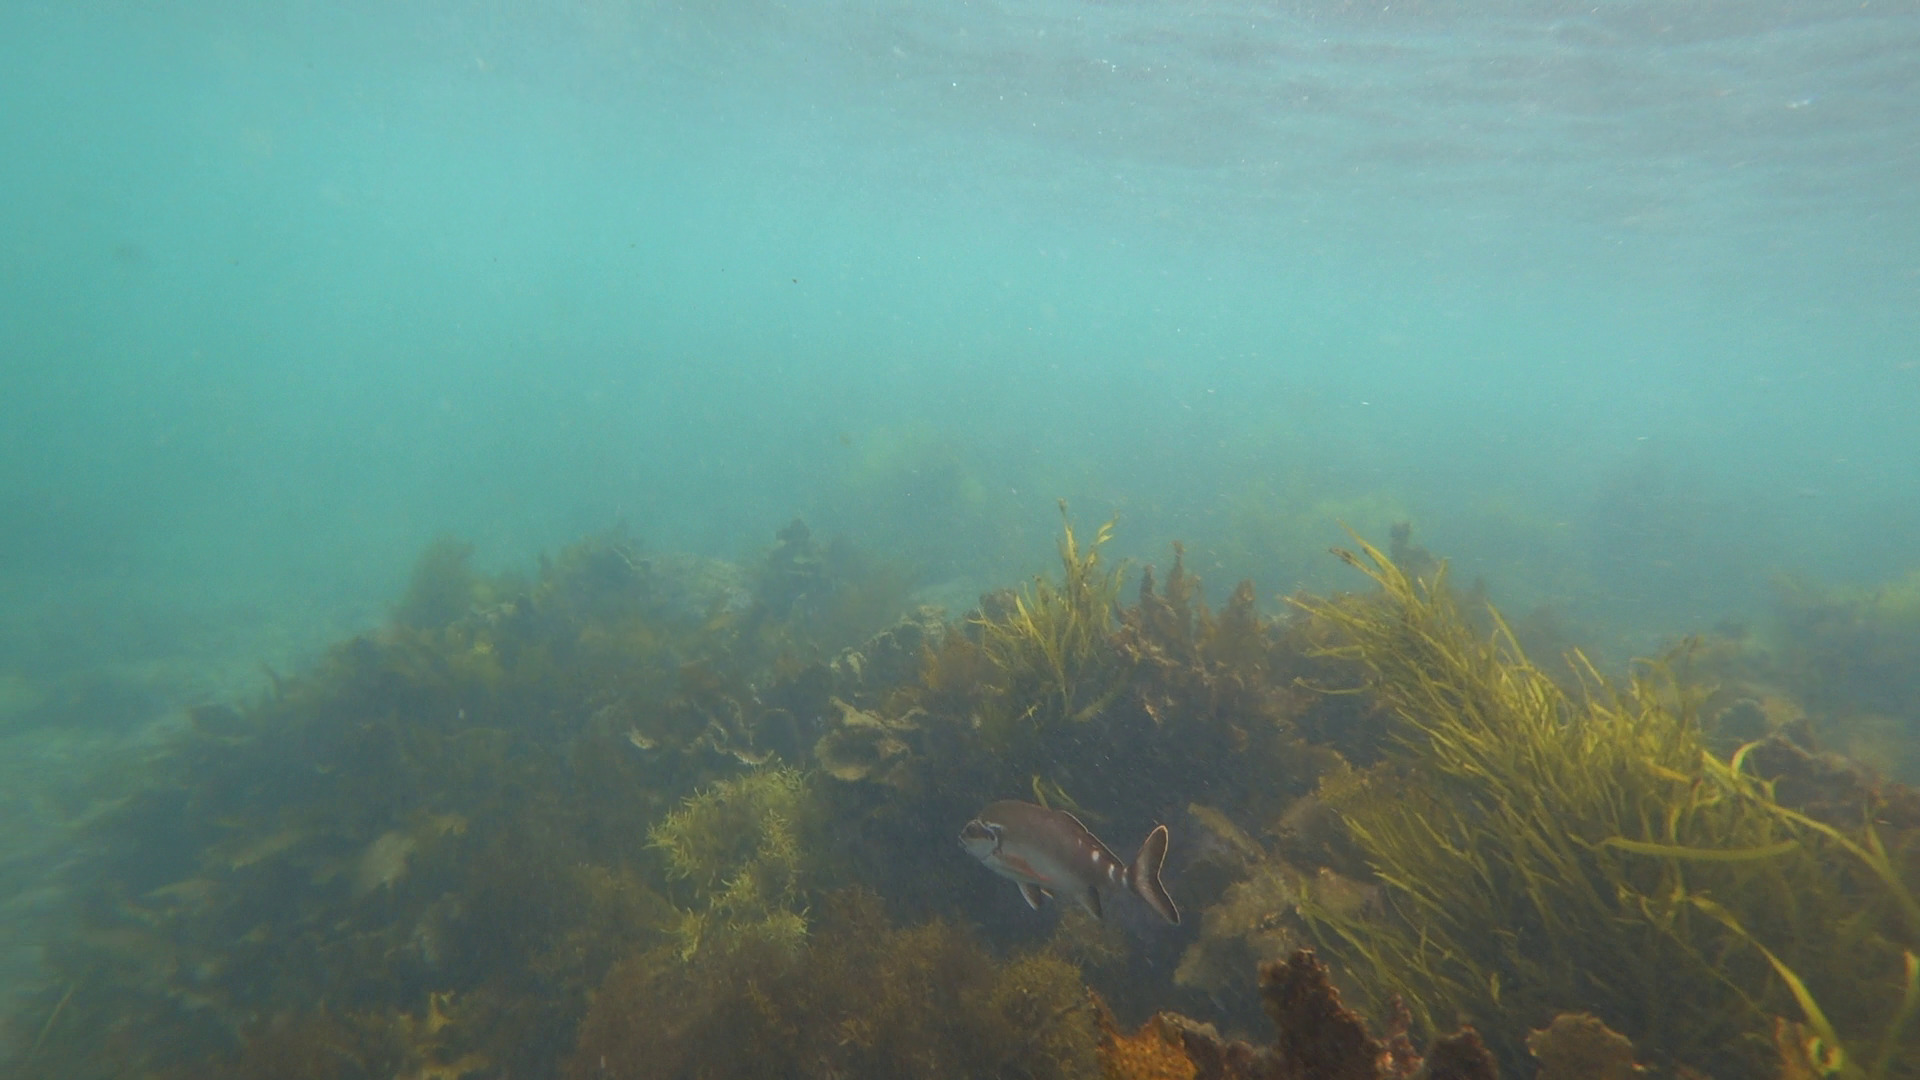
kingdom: Animalia
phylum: Chordata
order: Perciformes
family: Latridae
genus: Morwong
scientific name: Morwong fuscus
